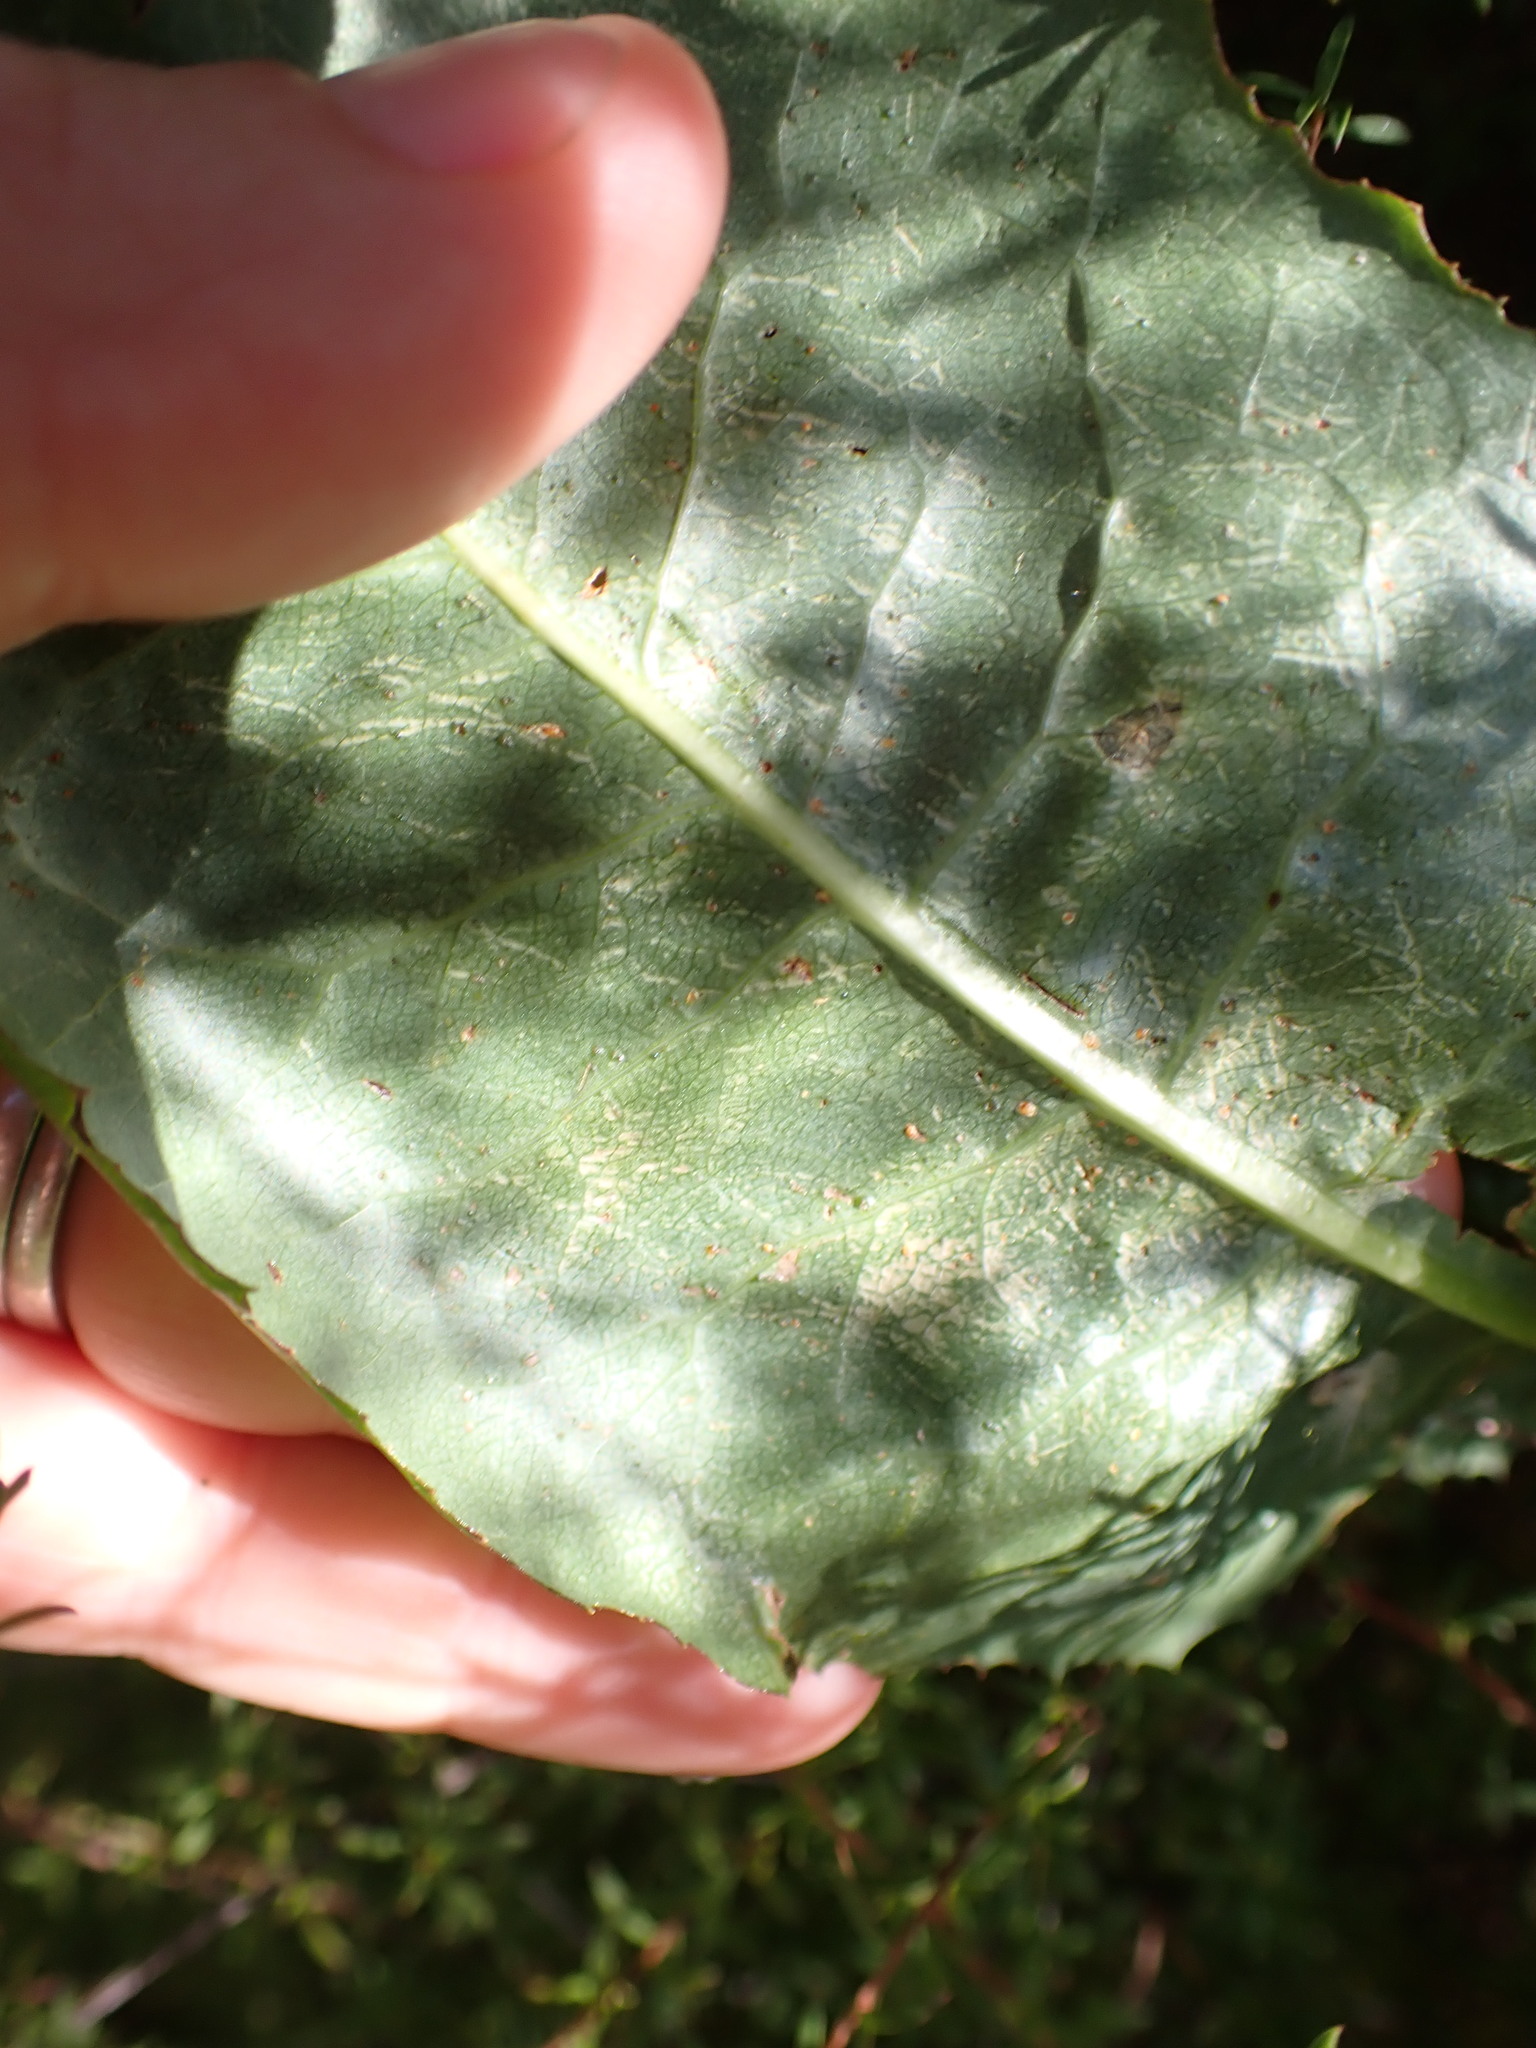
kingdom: Plantae
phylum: Tracheophyta
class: Magnoliopsida
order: Asterales
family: Asteraceae
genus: Lactuca
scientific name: Lactuca virosa
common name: Great lettuce
